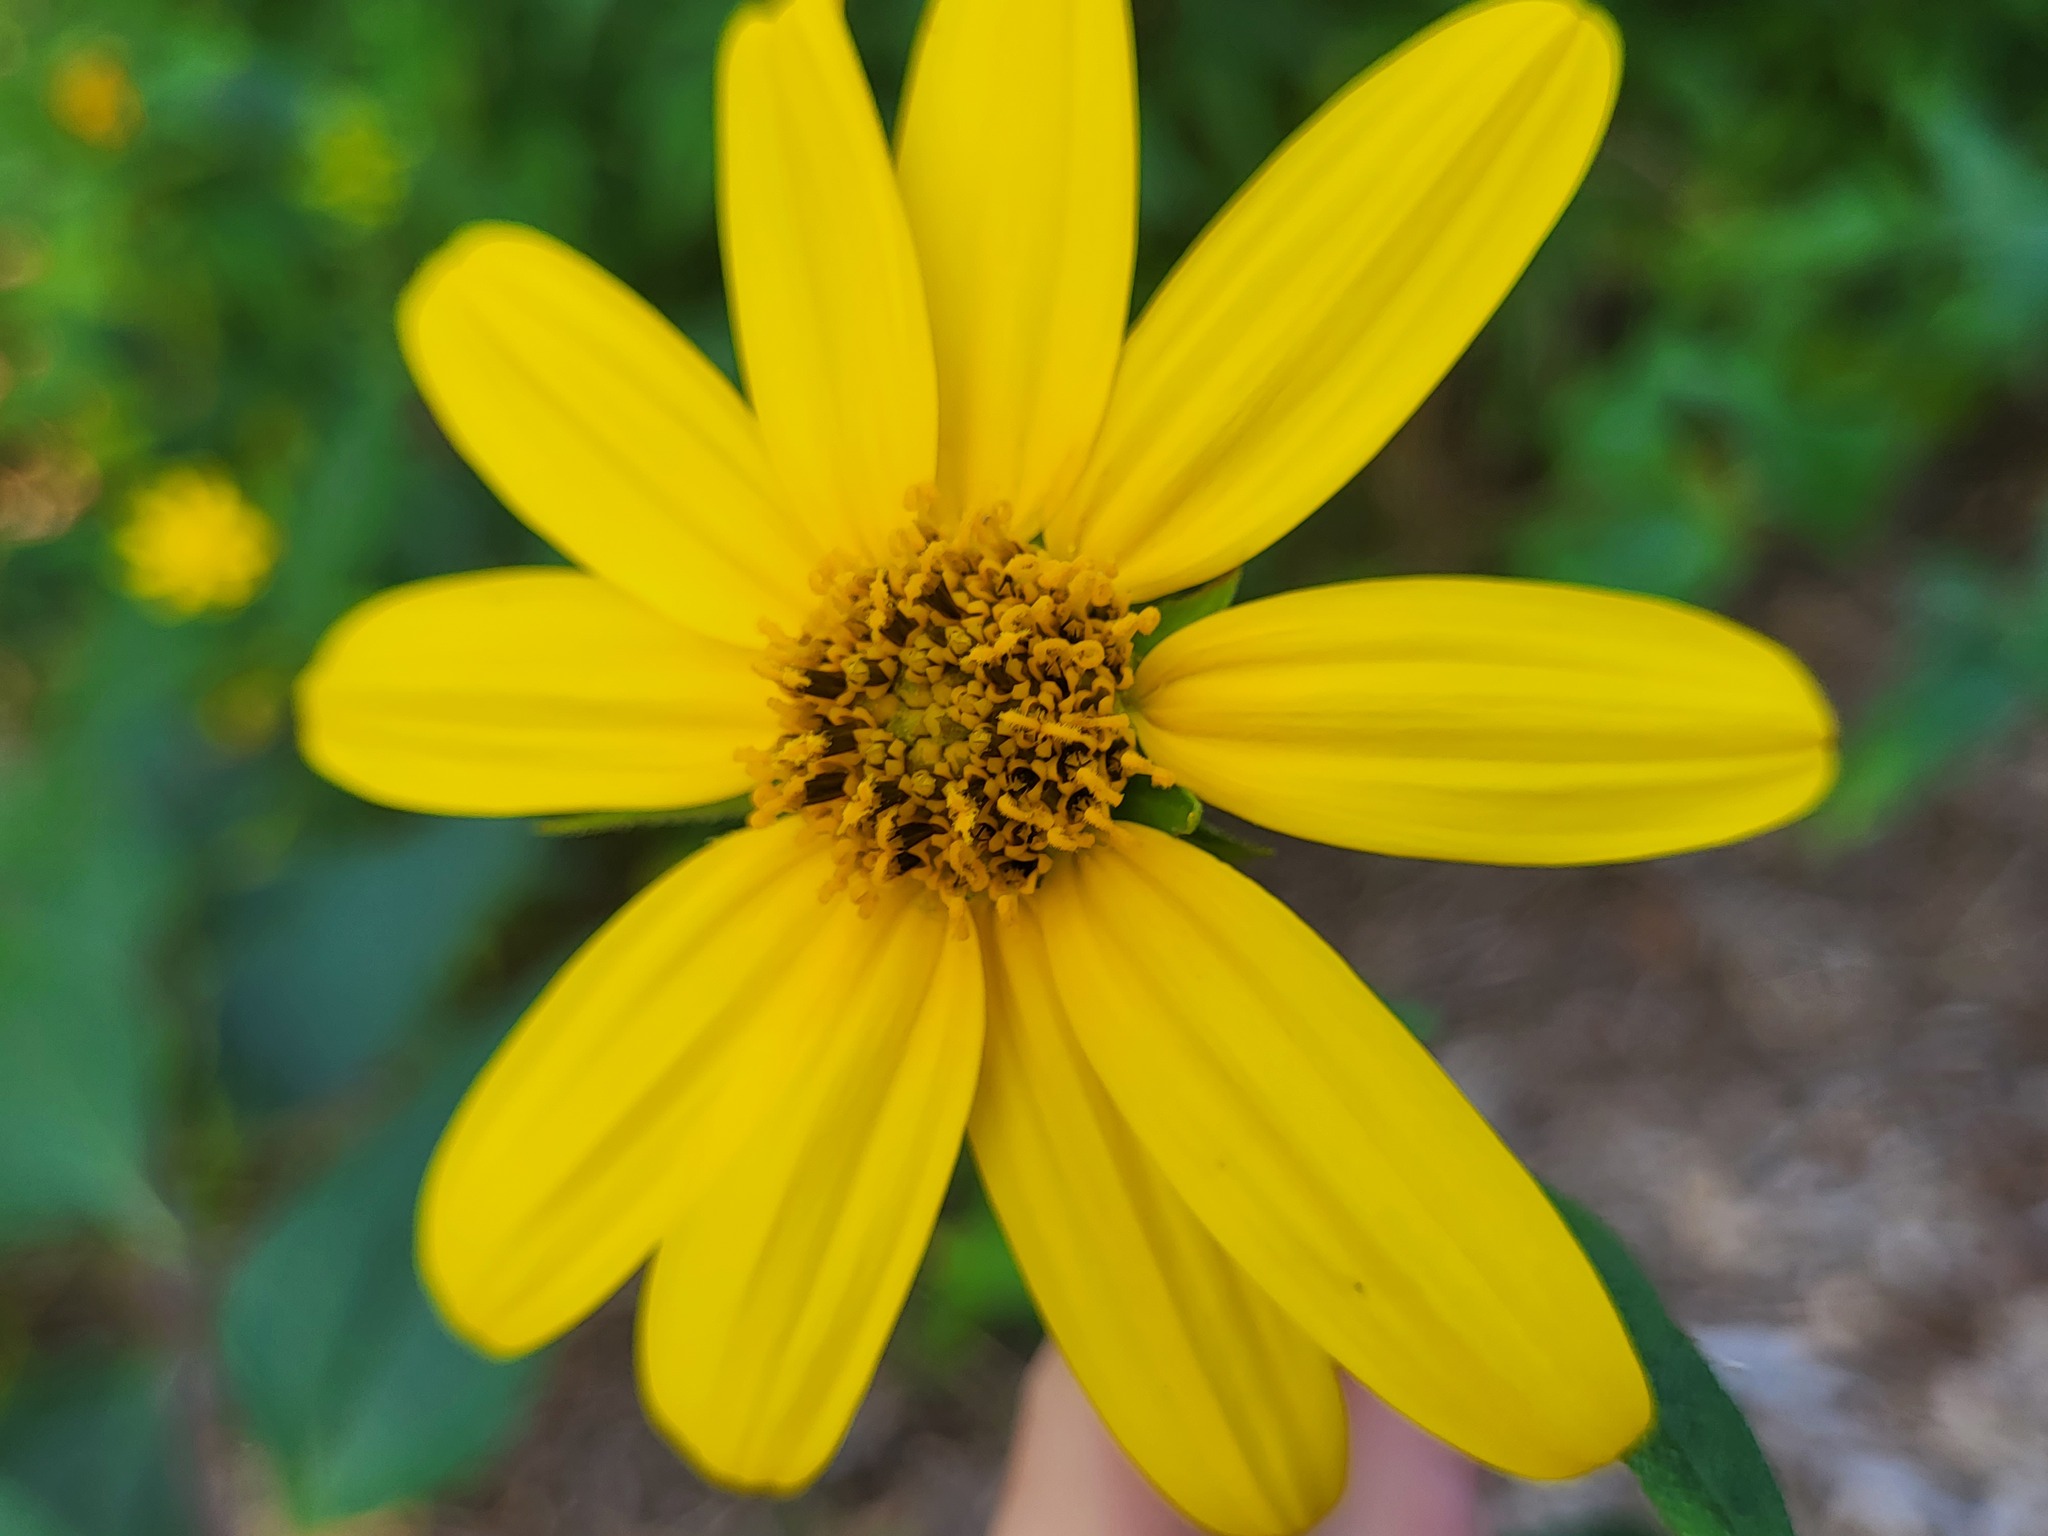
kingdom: Plantae
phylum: Tracheophyta
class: Magnoliopsida
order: Asterales
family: Asteraceae
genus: Helianthus
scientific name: Helianthus divaricatus
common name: Divergent sunflower
